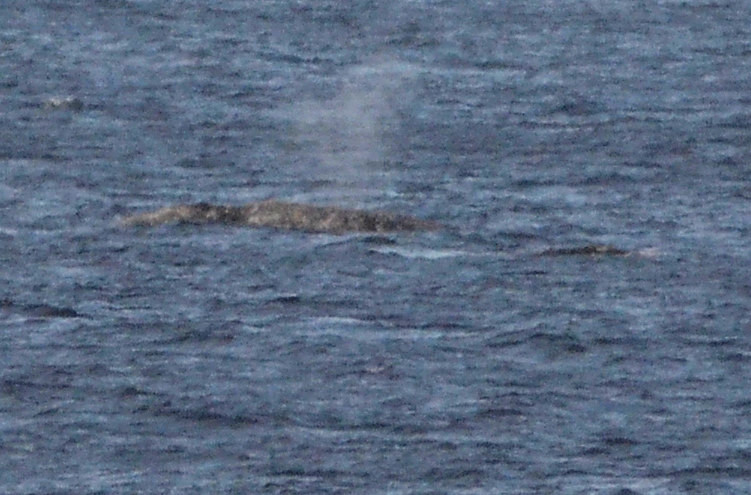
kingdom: Animalia
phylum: Chordata
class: Mammalia
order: Cetacea
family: Eschrichtiidae
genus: Eschrichtius
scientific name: Eschrichtius robustus
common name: Gray whale
